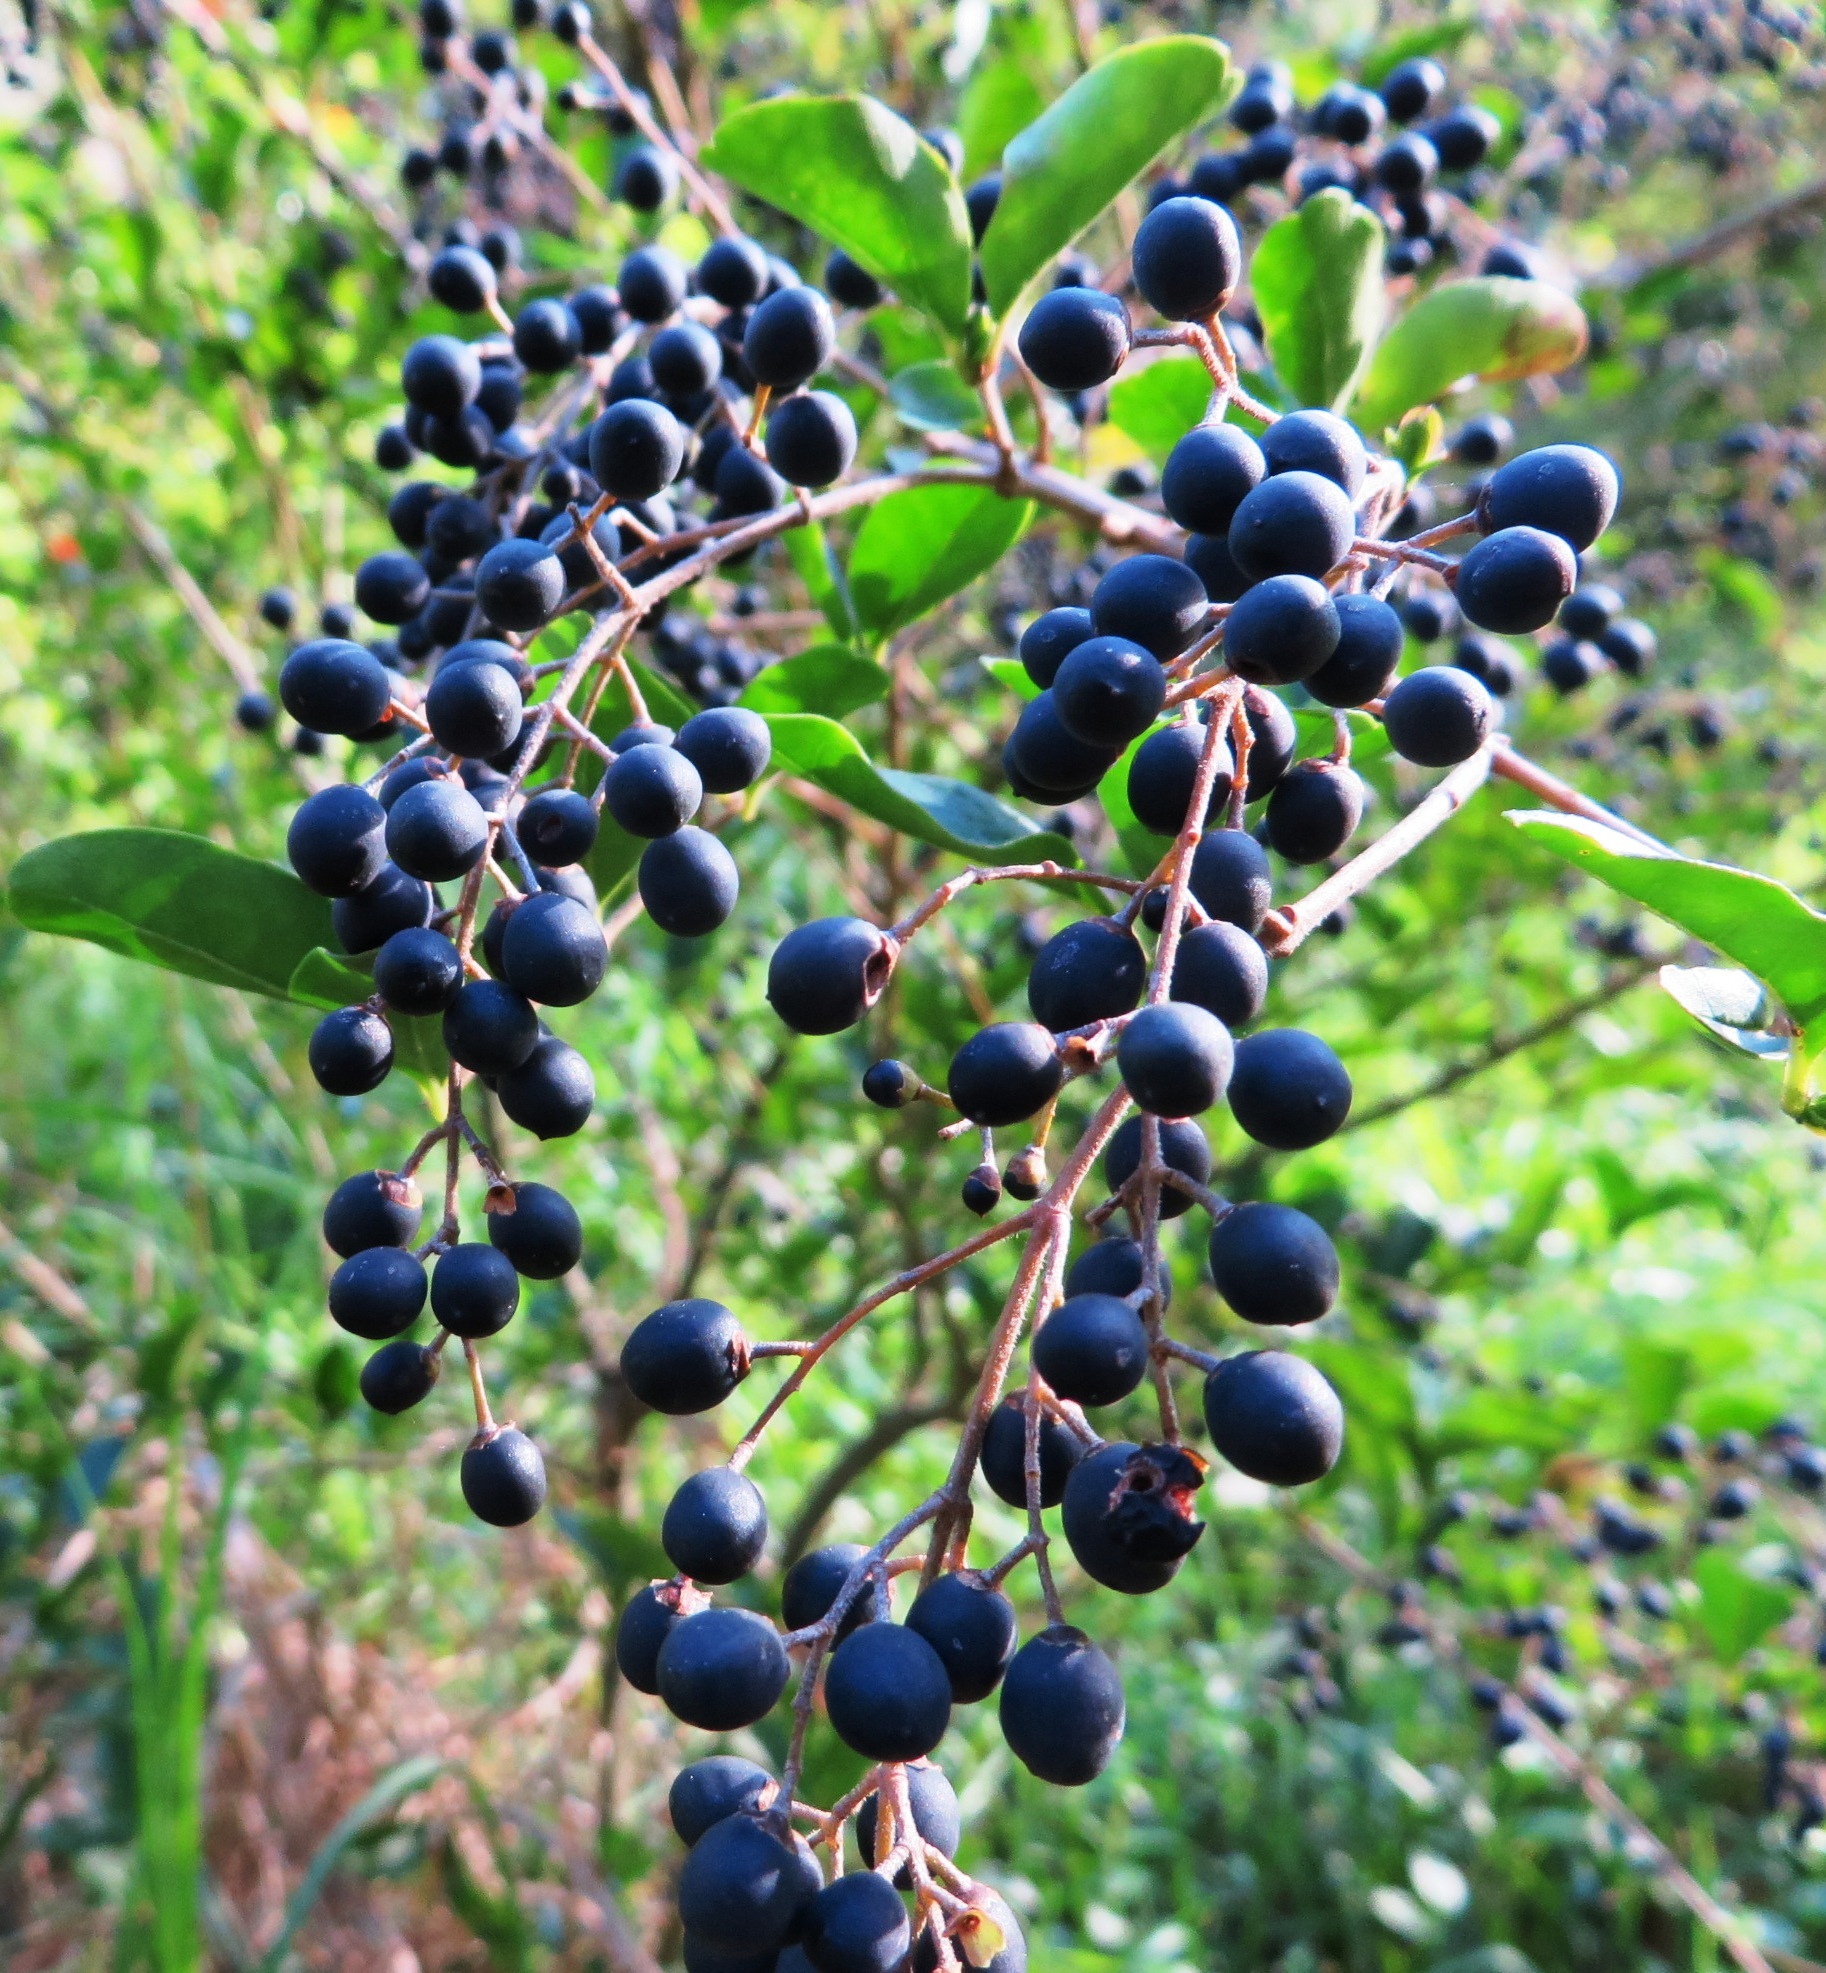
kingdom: Plantae
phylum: Tracheophyta
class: Magnoliopsida
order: Lamiales
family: Oleaceae
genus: Ligustrum
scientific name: Ligustrum sinense
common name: Chinese privet
